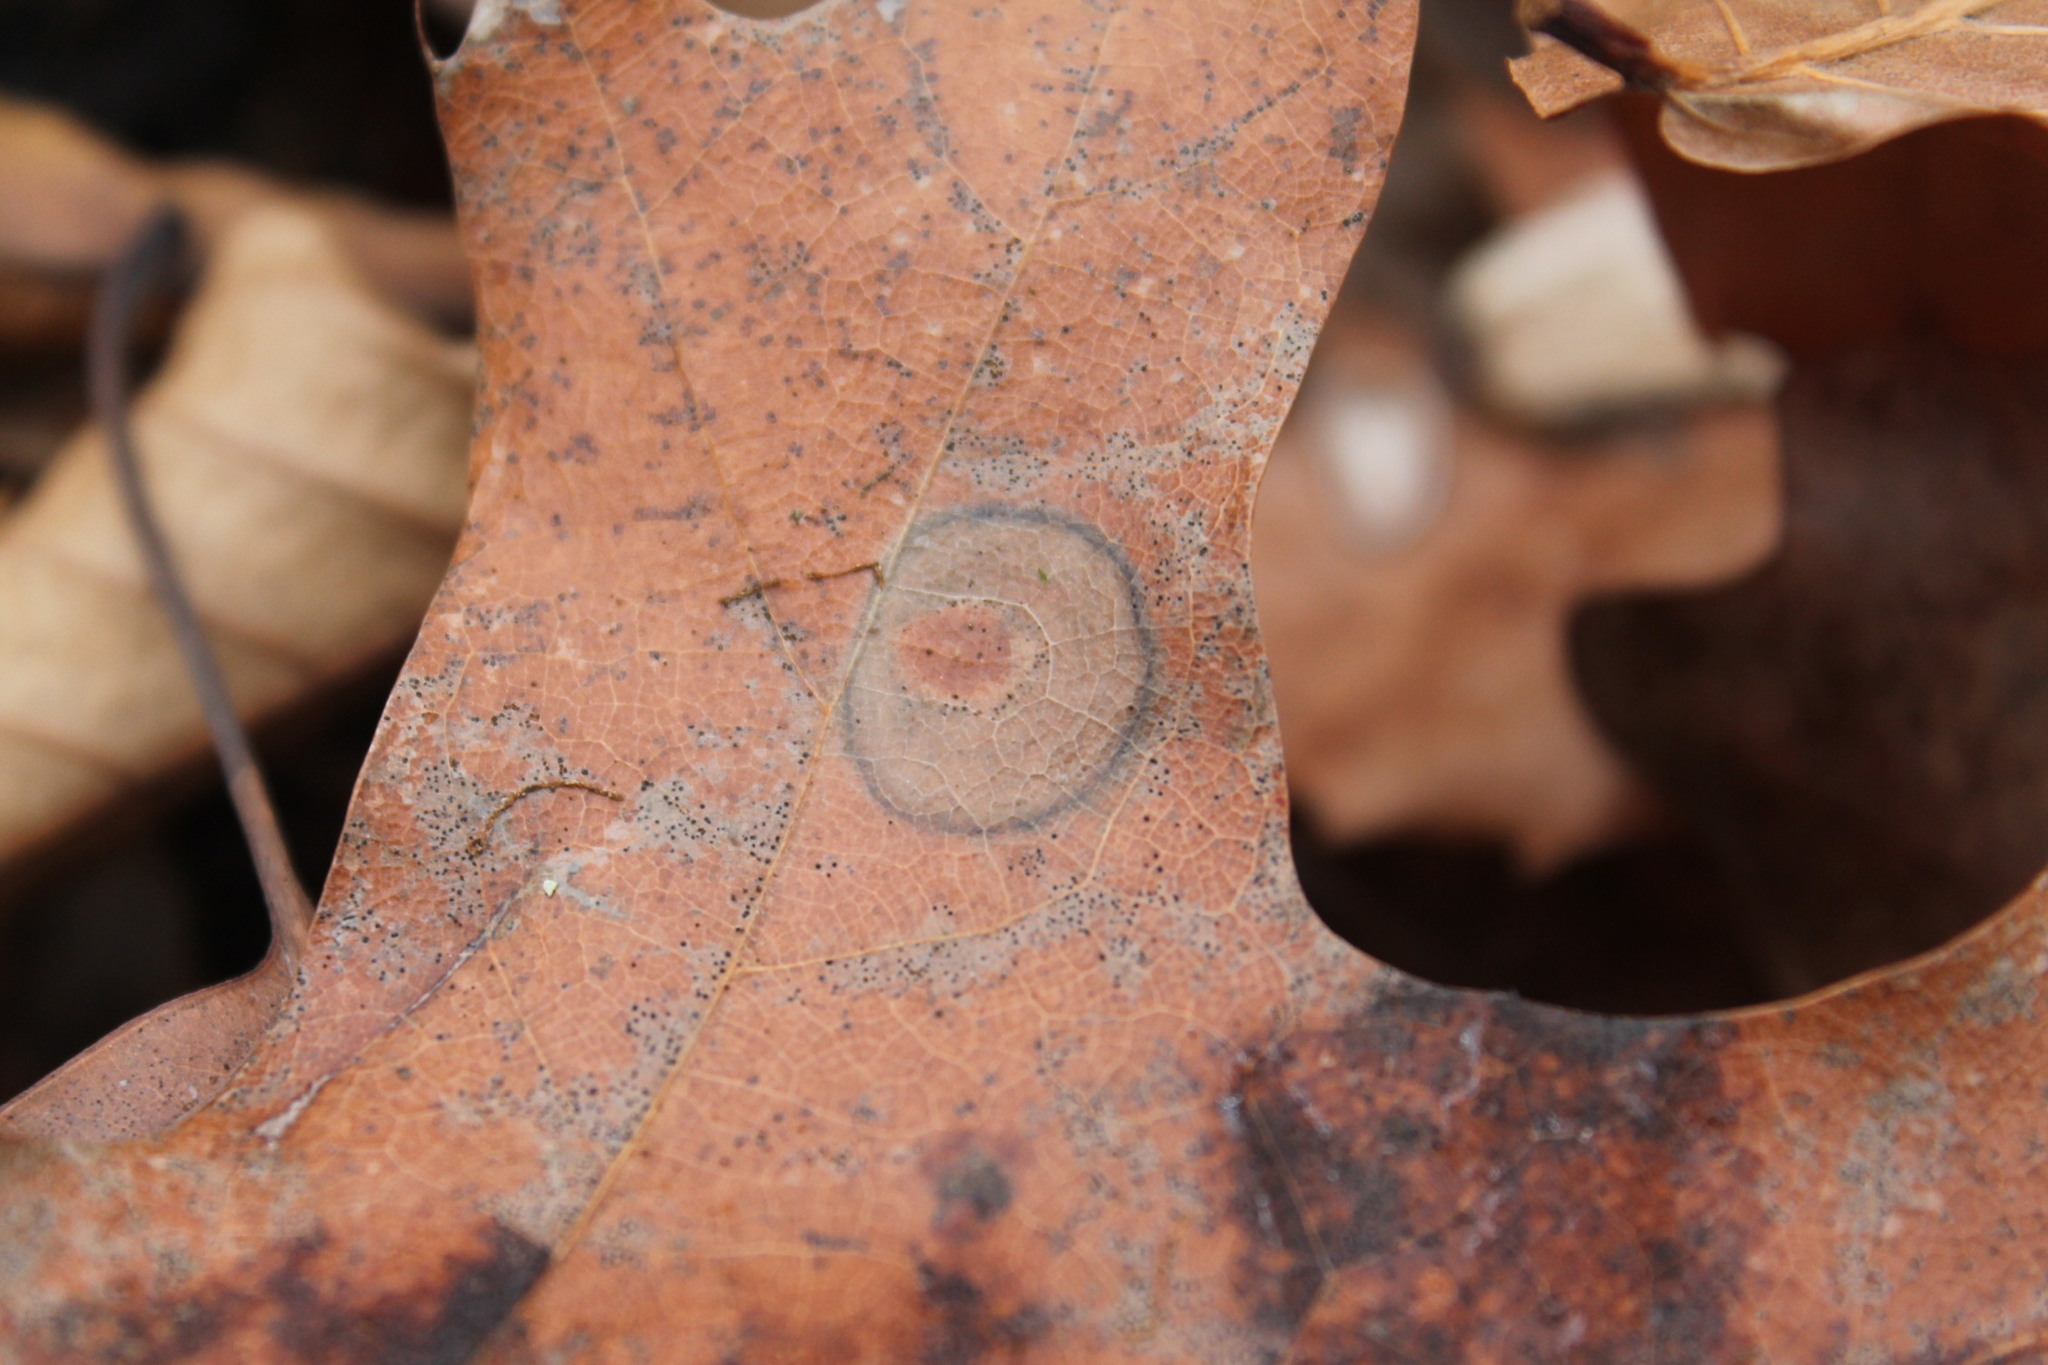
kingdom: Fungi
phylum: Ascomycota
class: Sordariomycetes
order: Diaporthales
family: Melanconidaceae
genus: Dicarpella
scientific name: Dicarpella dryina
